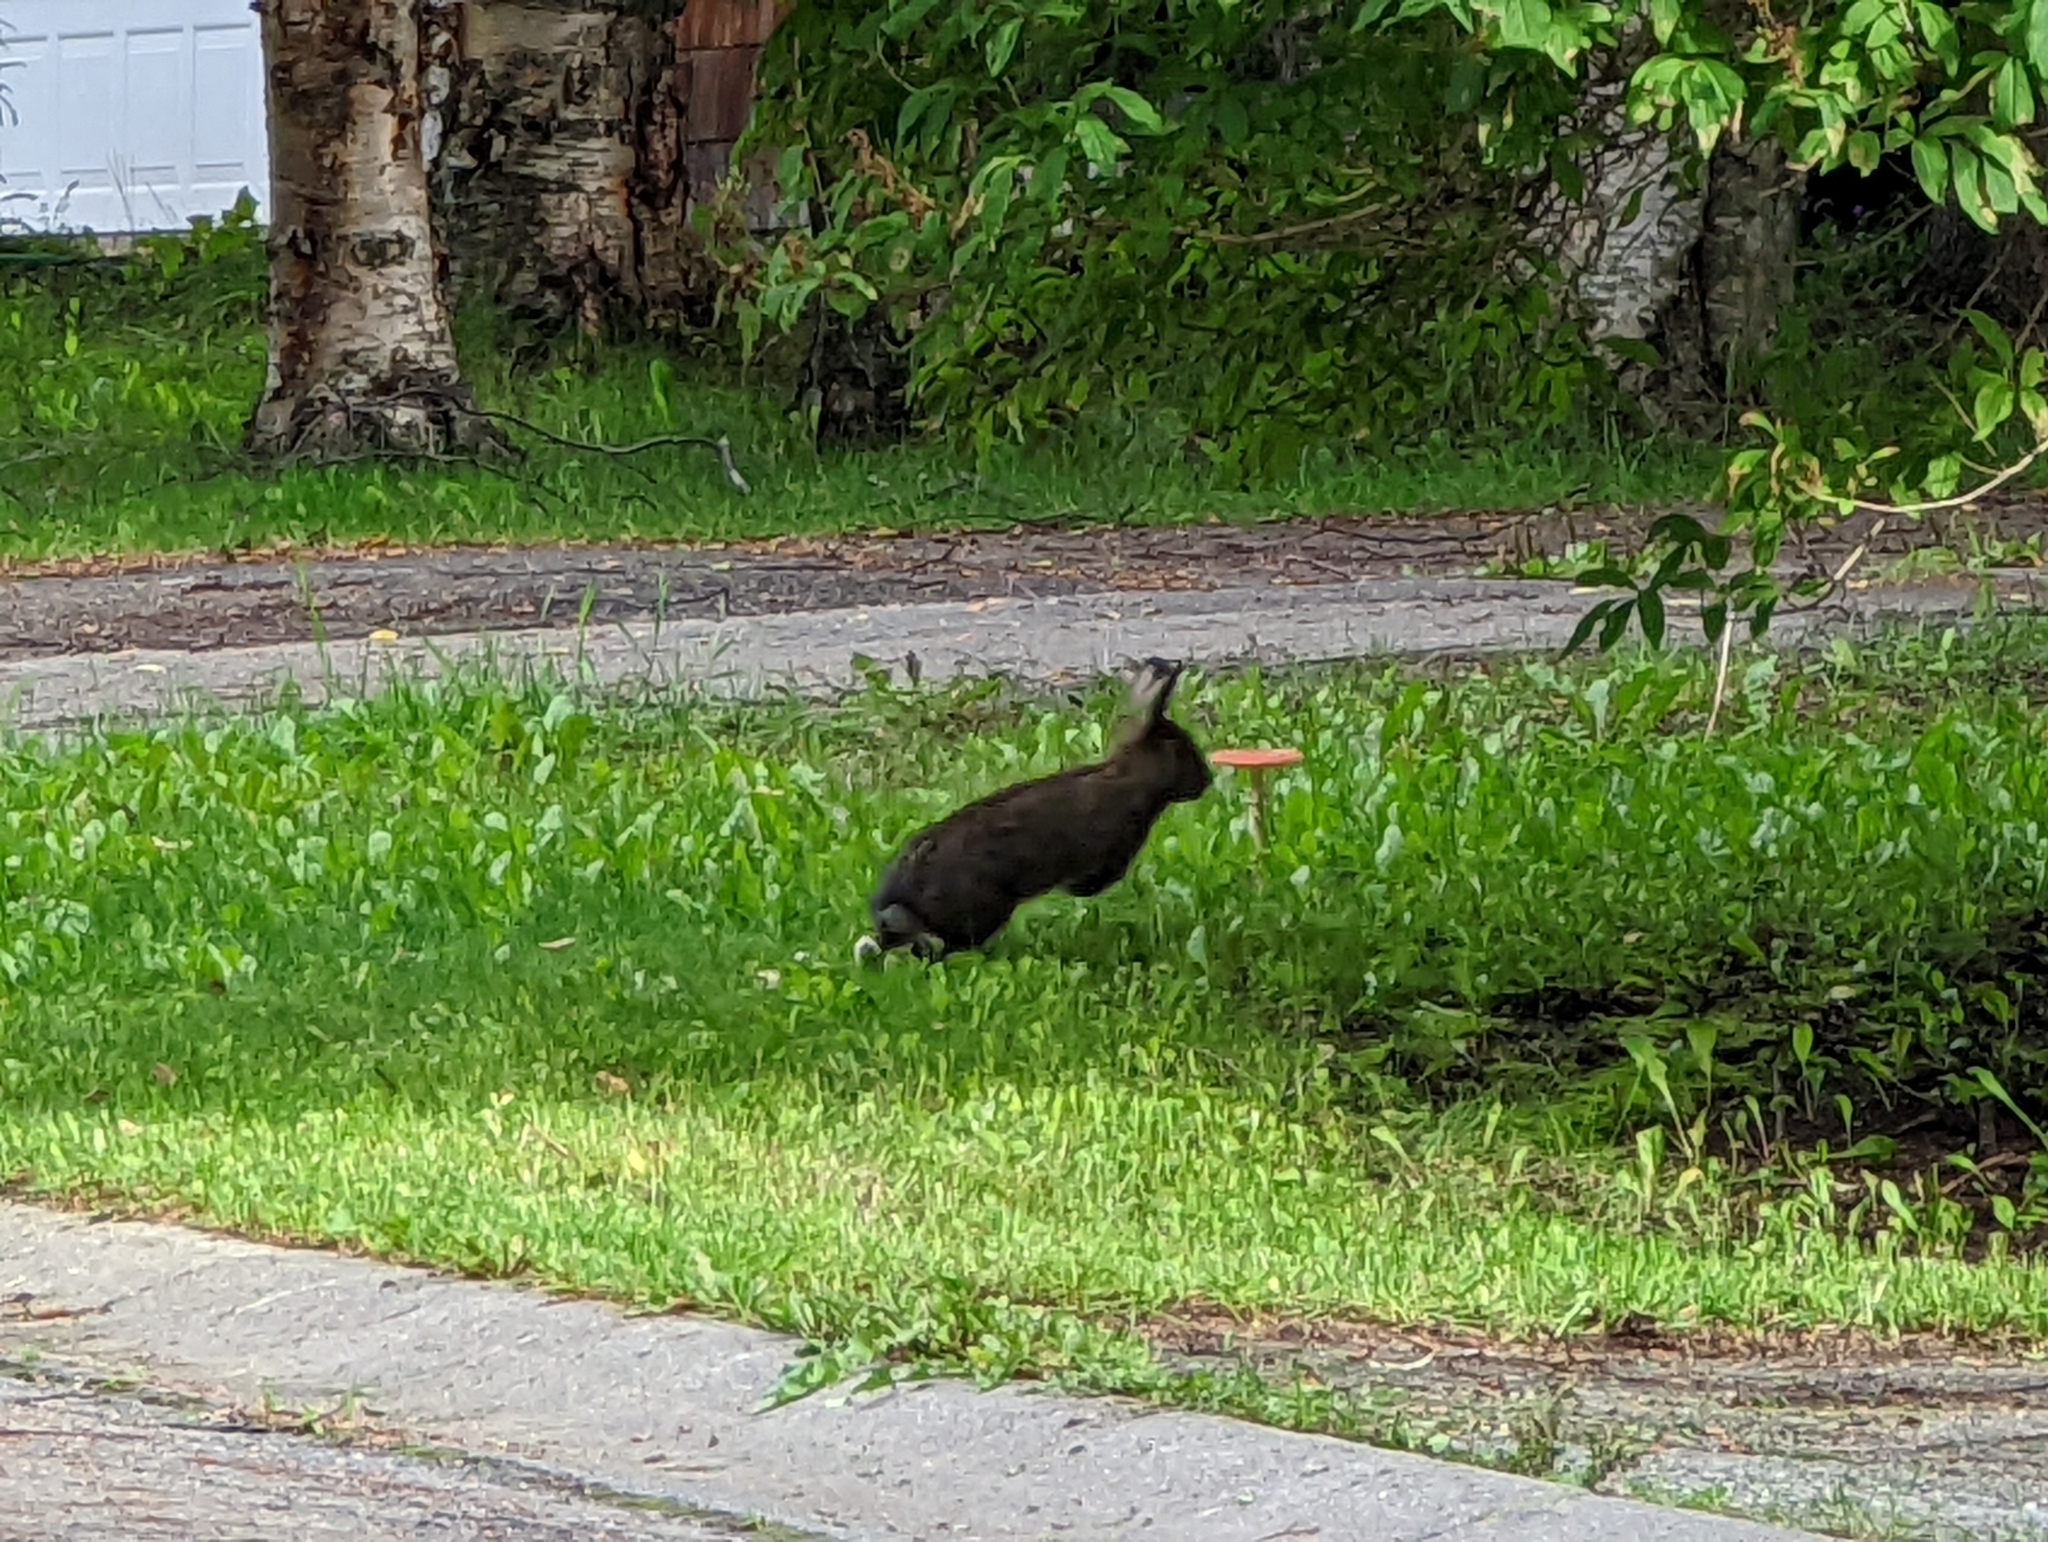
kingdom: Animalia
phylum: Chordata
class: Mammalia
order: Lagomorpha
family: Leporidae
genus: Lepus
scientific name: Lepus americanus
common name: Snowshoe hare
